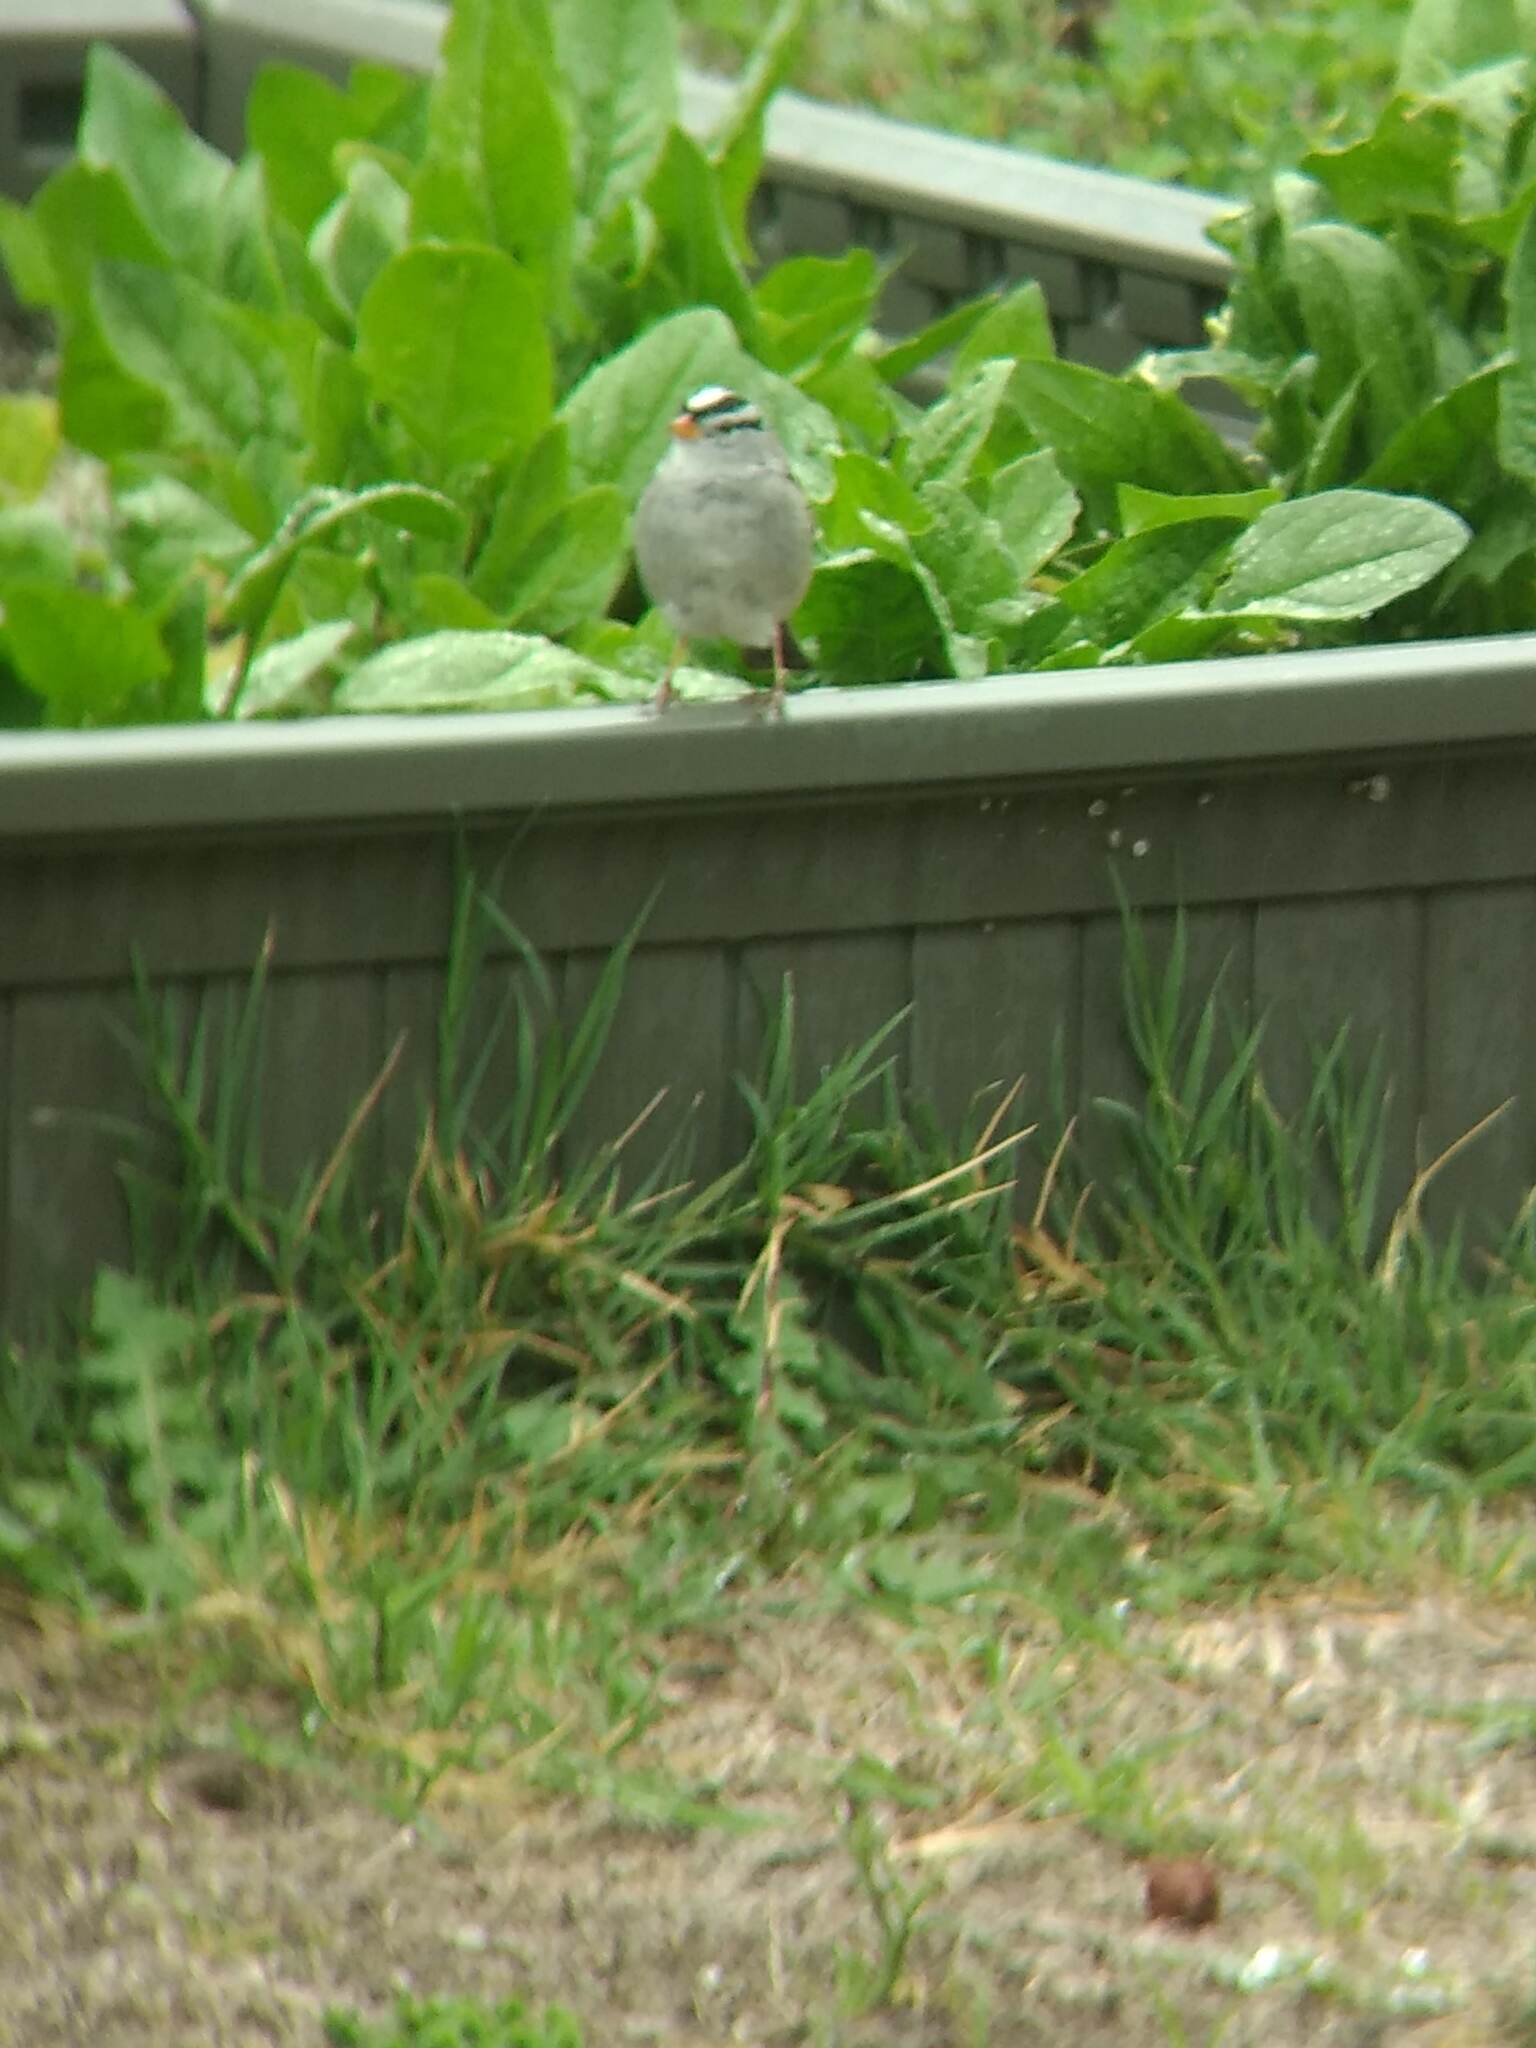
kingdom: Animalia
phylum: Chordata
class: Aves
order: Passeriformes
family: Passerellidae
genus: Zonotrichia
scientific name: Zonotrichia leucophrys
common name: White-crowned sparrow
